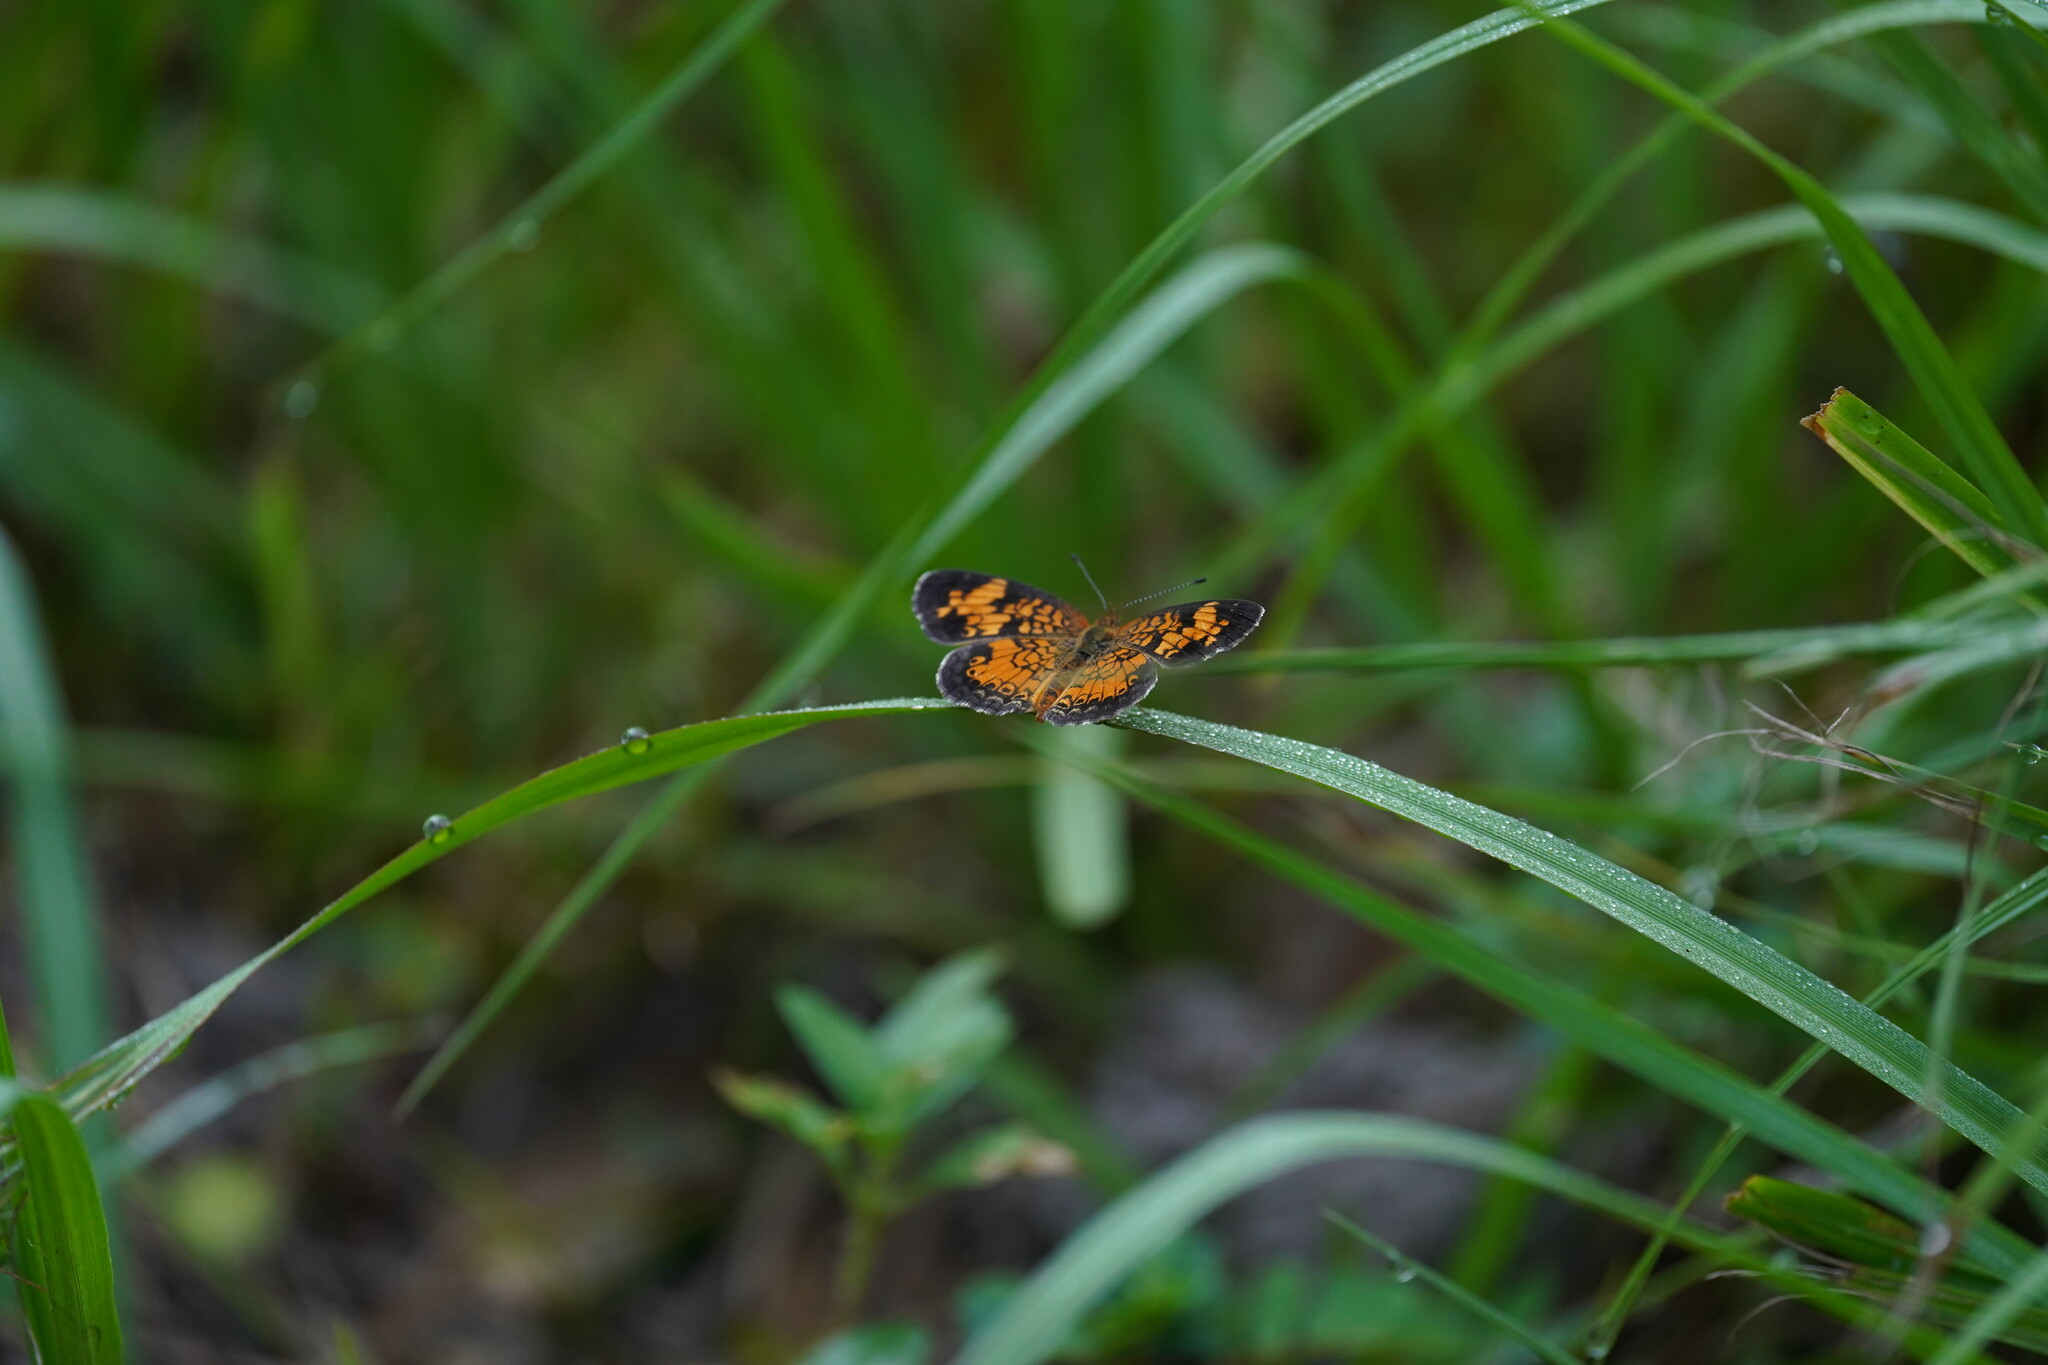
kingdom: Animalia
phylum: Arthropoda
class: Insecta
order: Lepidoptera
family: Nymphalidae
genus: Phyciodes
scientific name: Phyciodes tharos
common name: Pearl crescent
